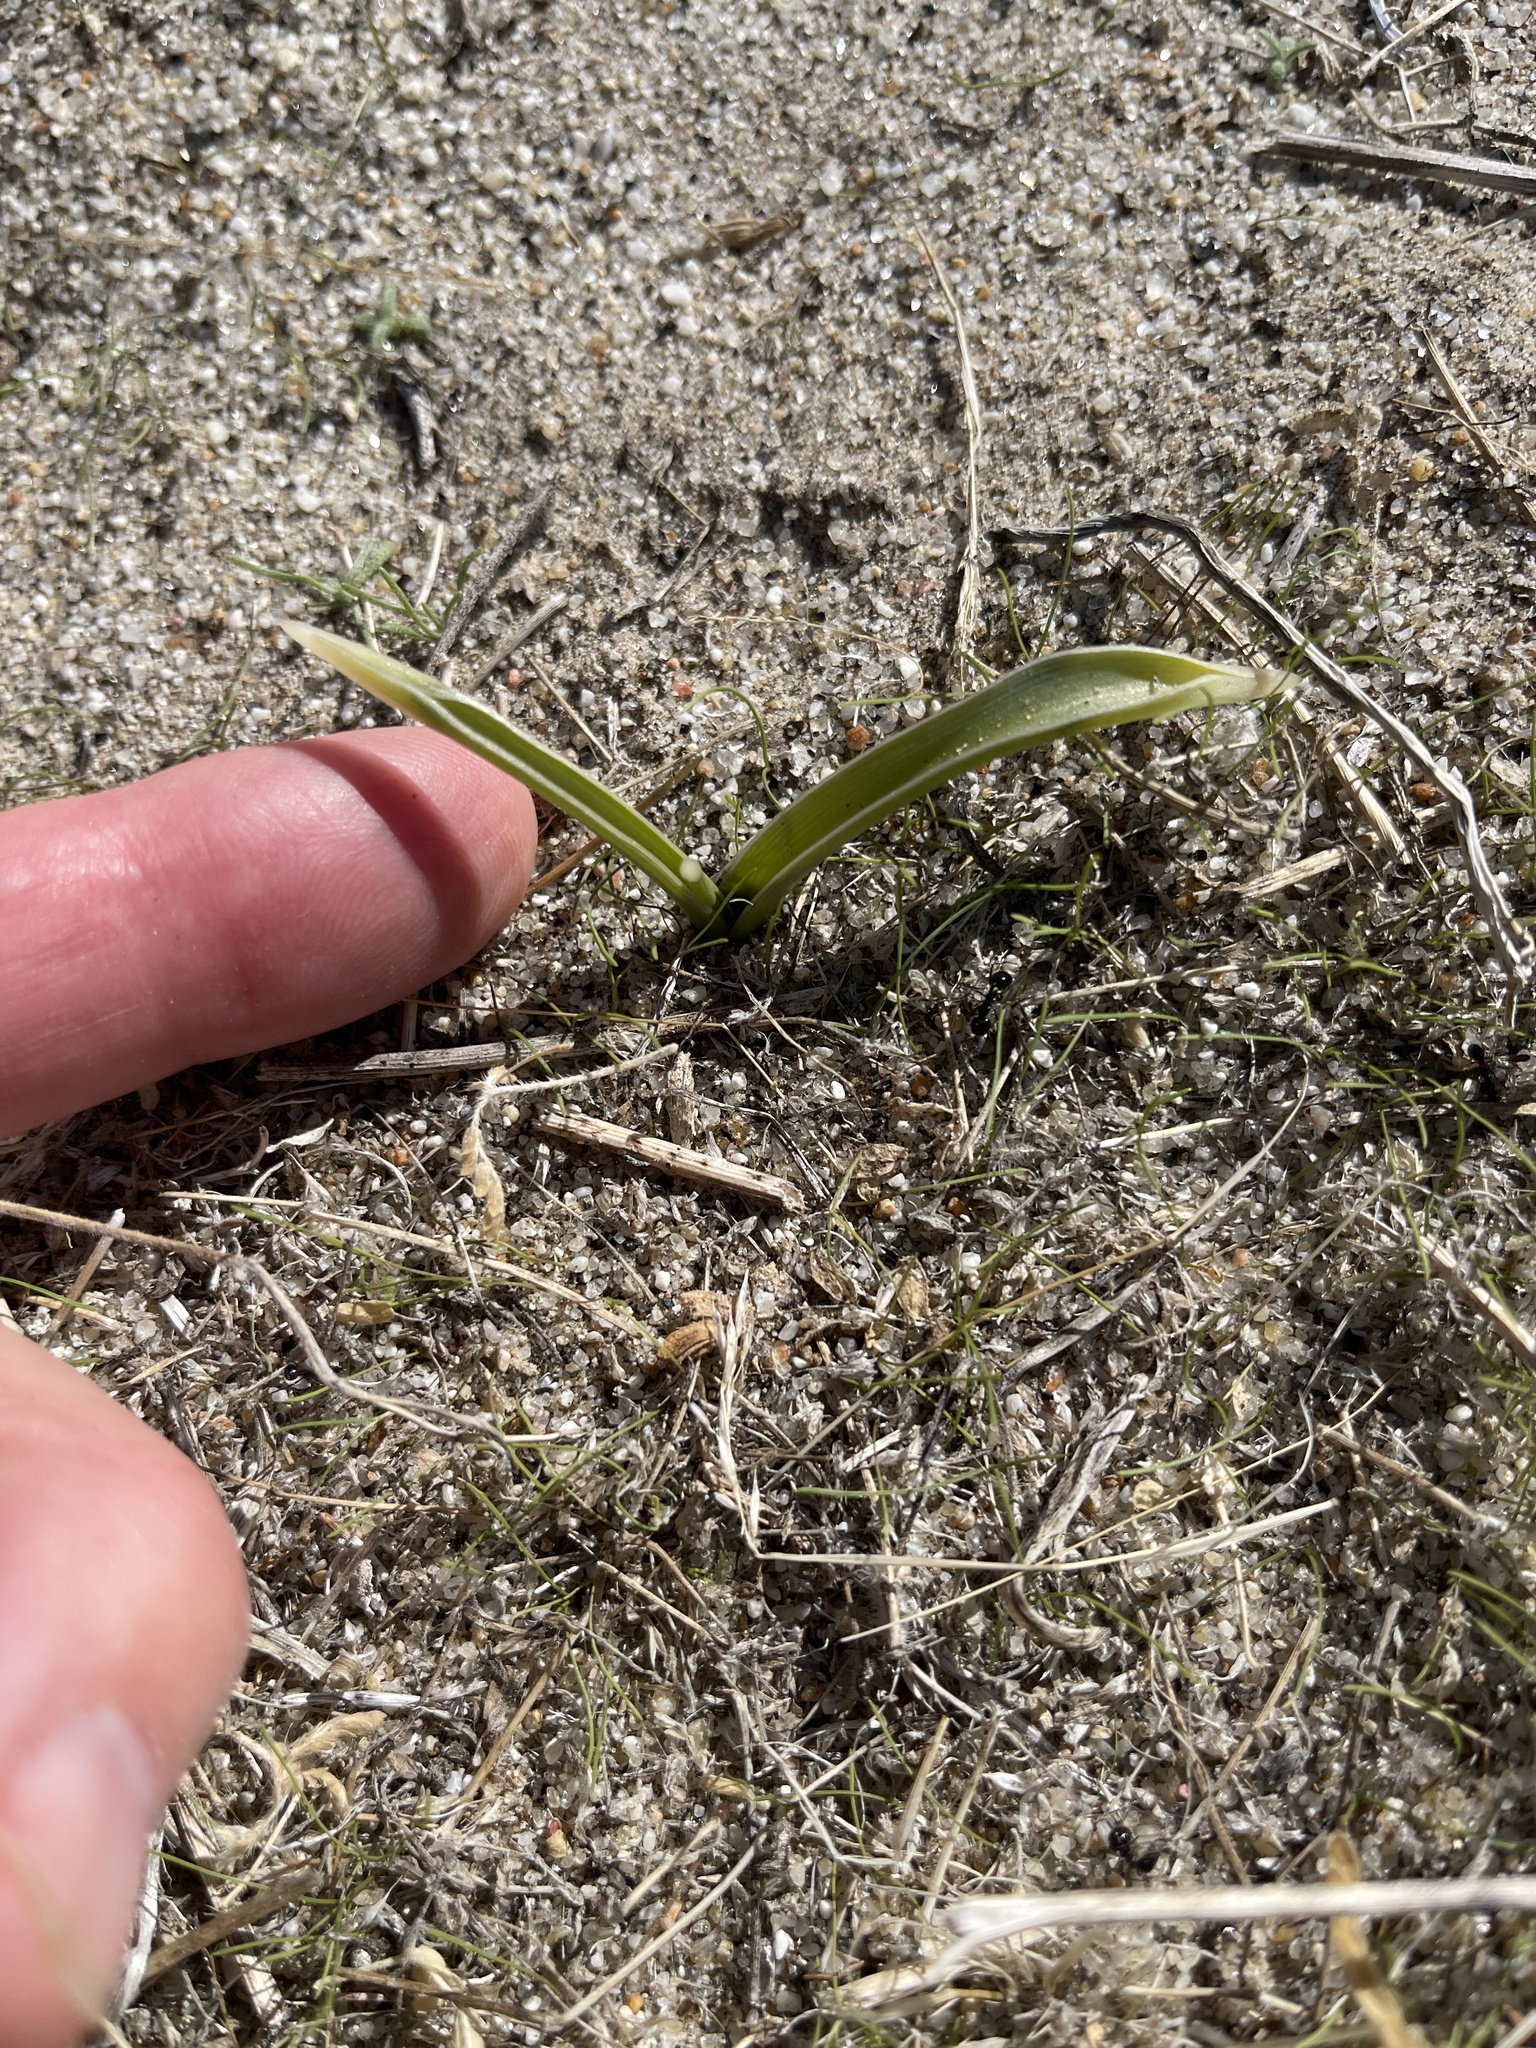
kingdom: Plantae
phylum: Tracheophyta
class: Liliopsida
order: Asparagales
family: Asparagaceae
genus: Hesperocallis
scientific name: Hesperocallis undulata
